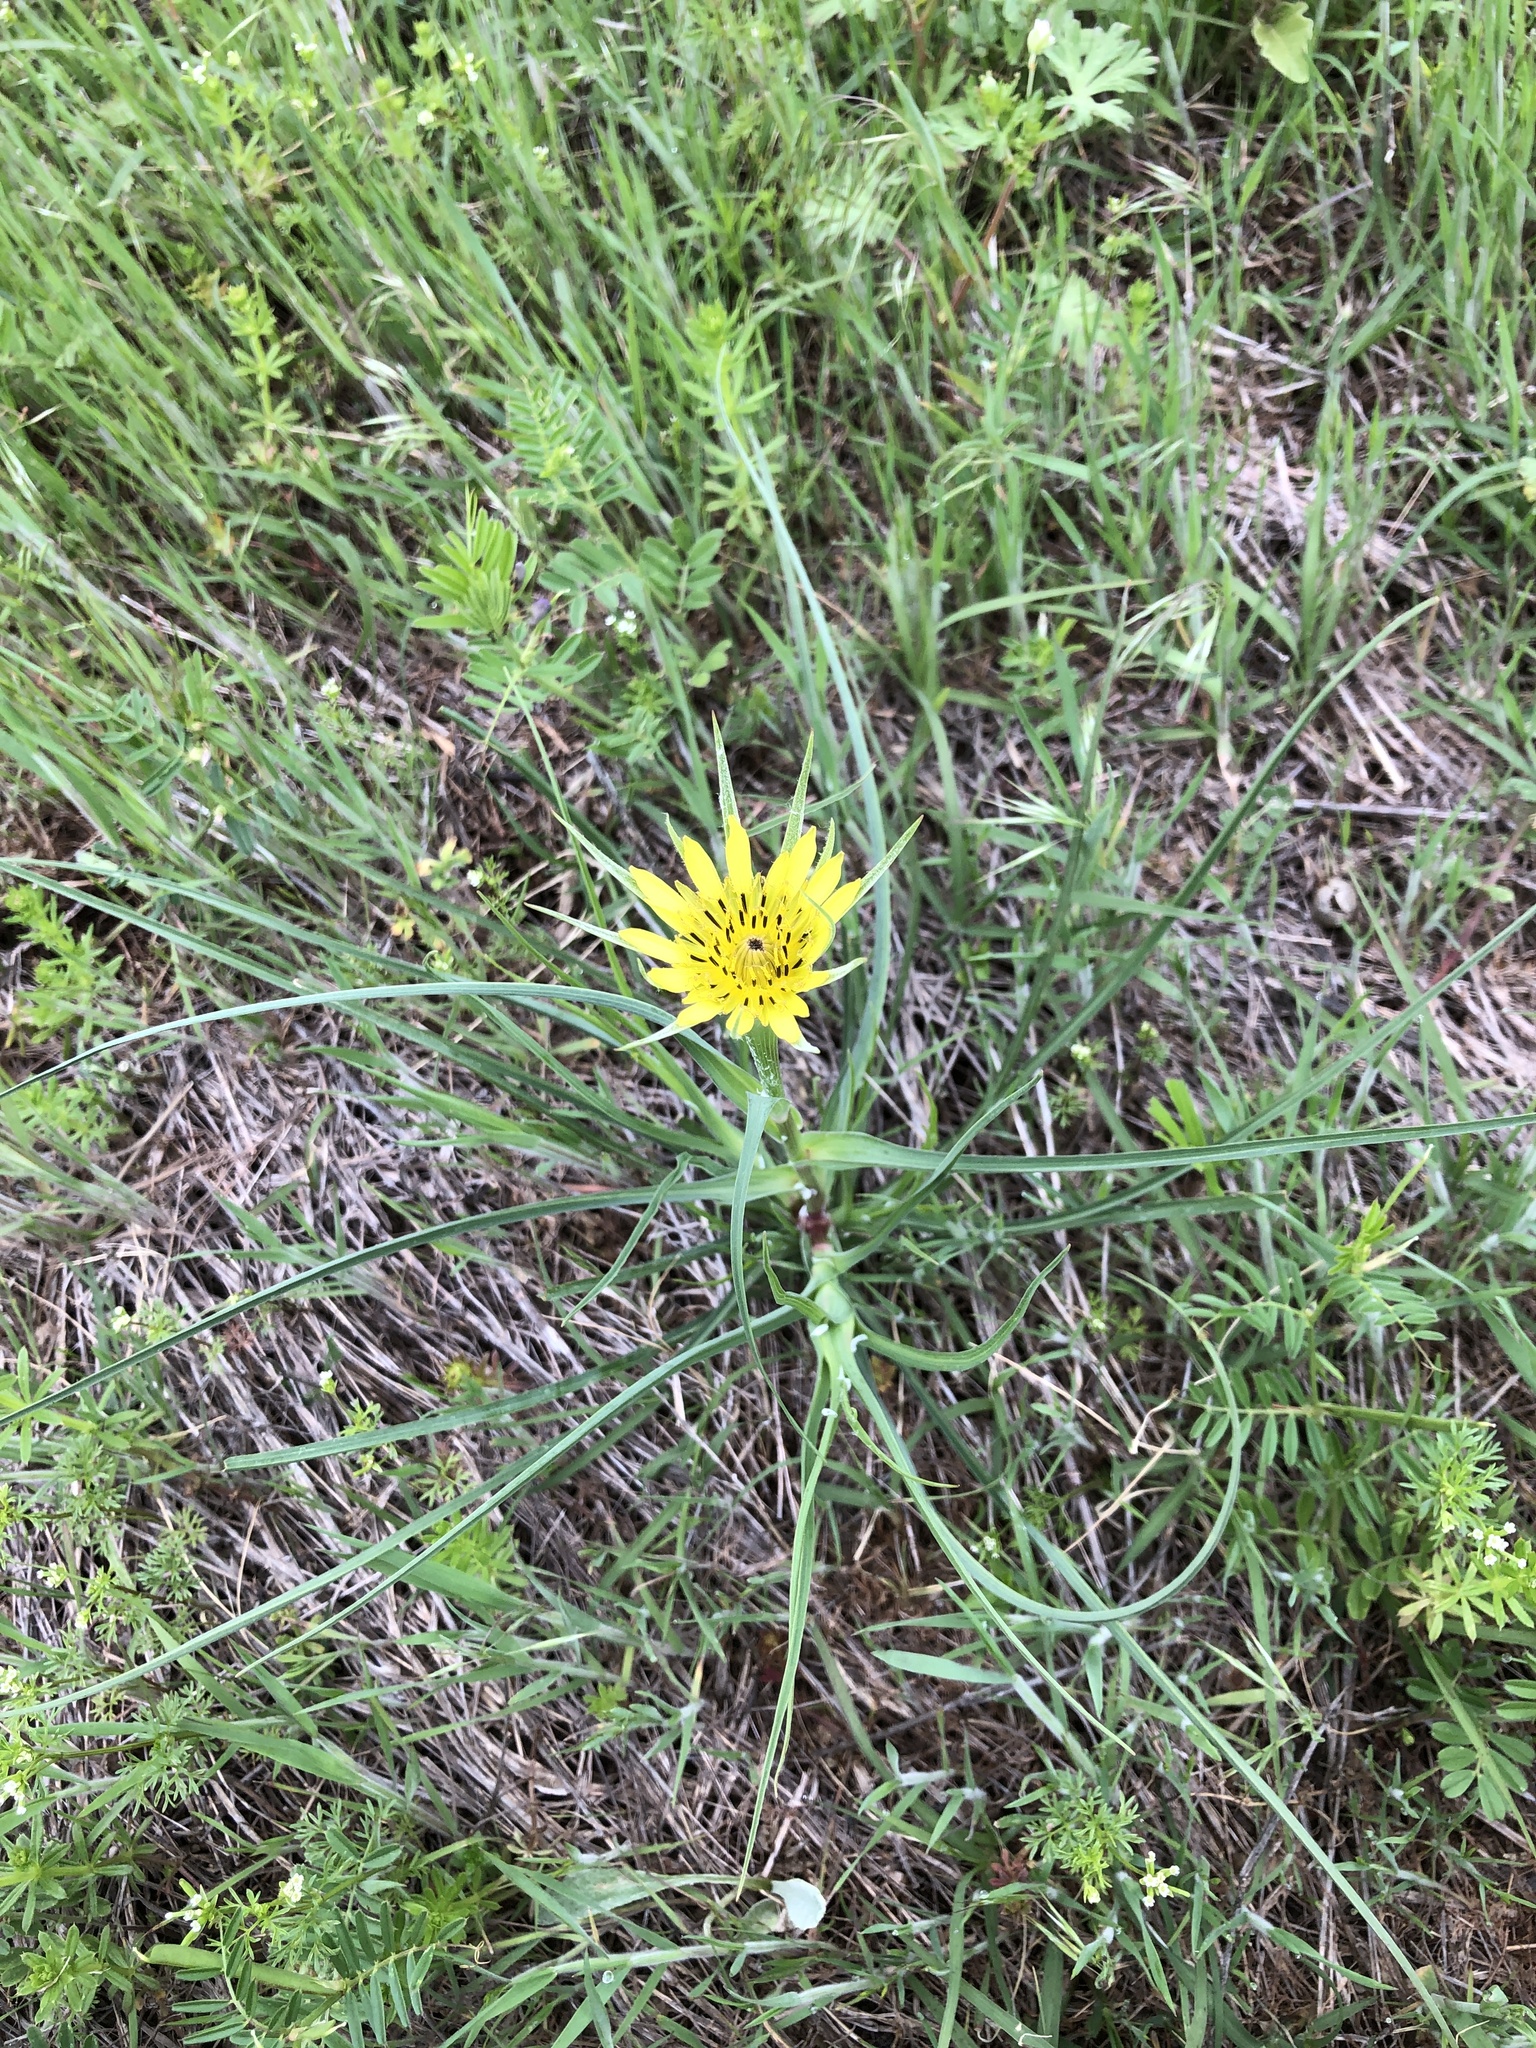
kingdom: Plantae
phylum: Tracheophyta
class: Magnoliopsida
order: Asterales
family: Asteraceae
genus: Tragopogon
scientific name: Tragopogon dubius
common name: Yellow salsify
